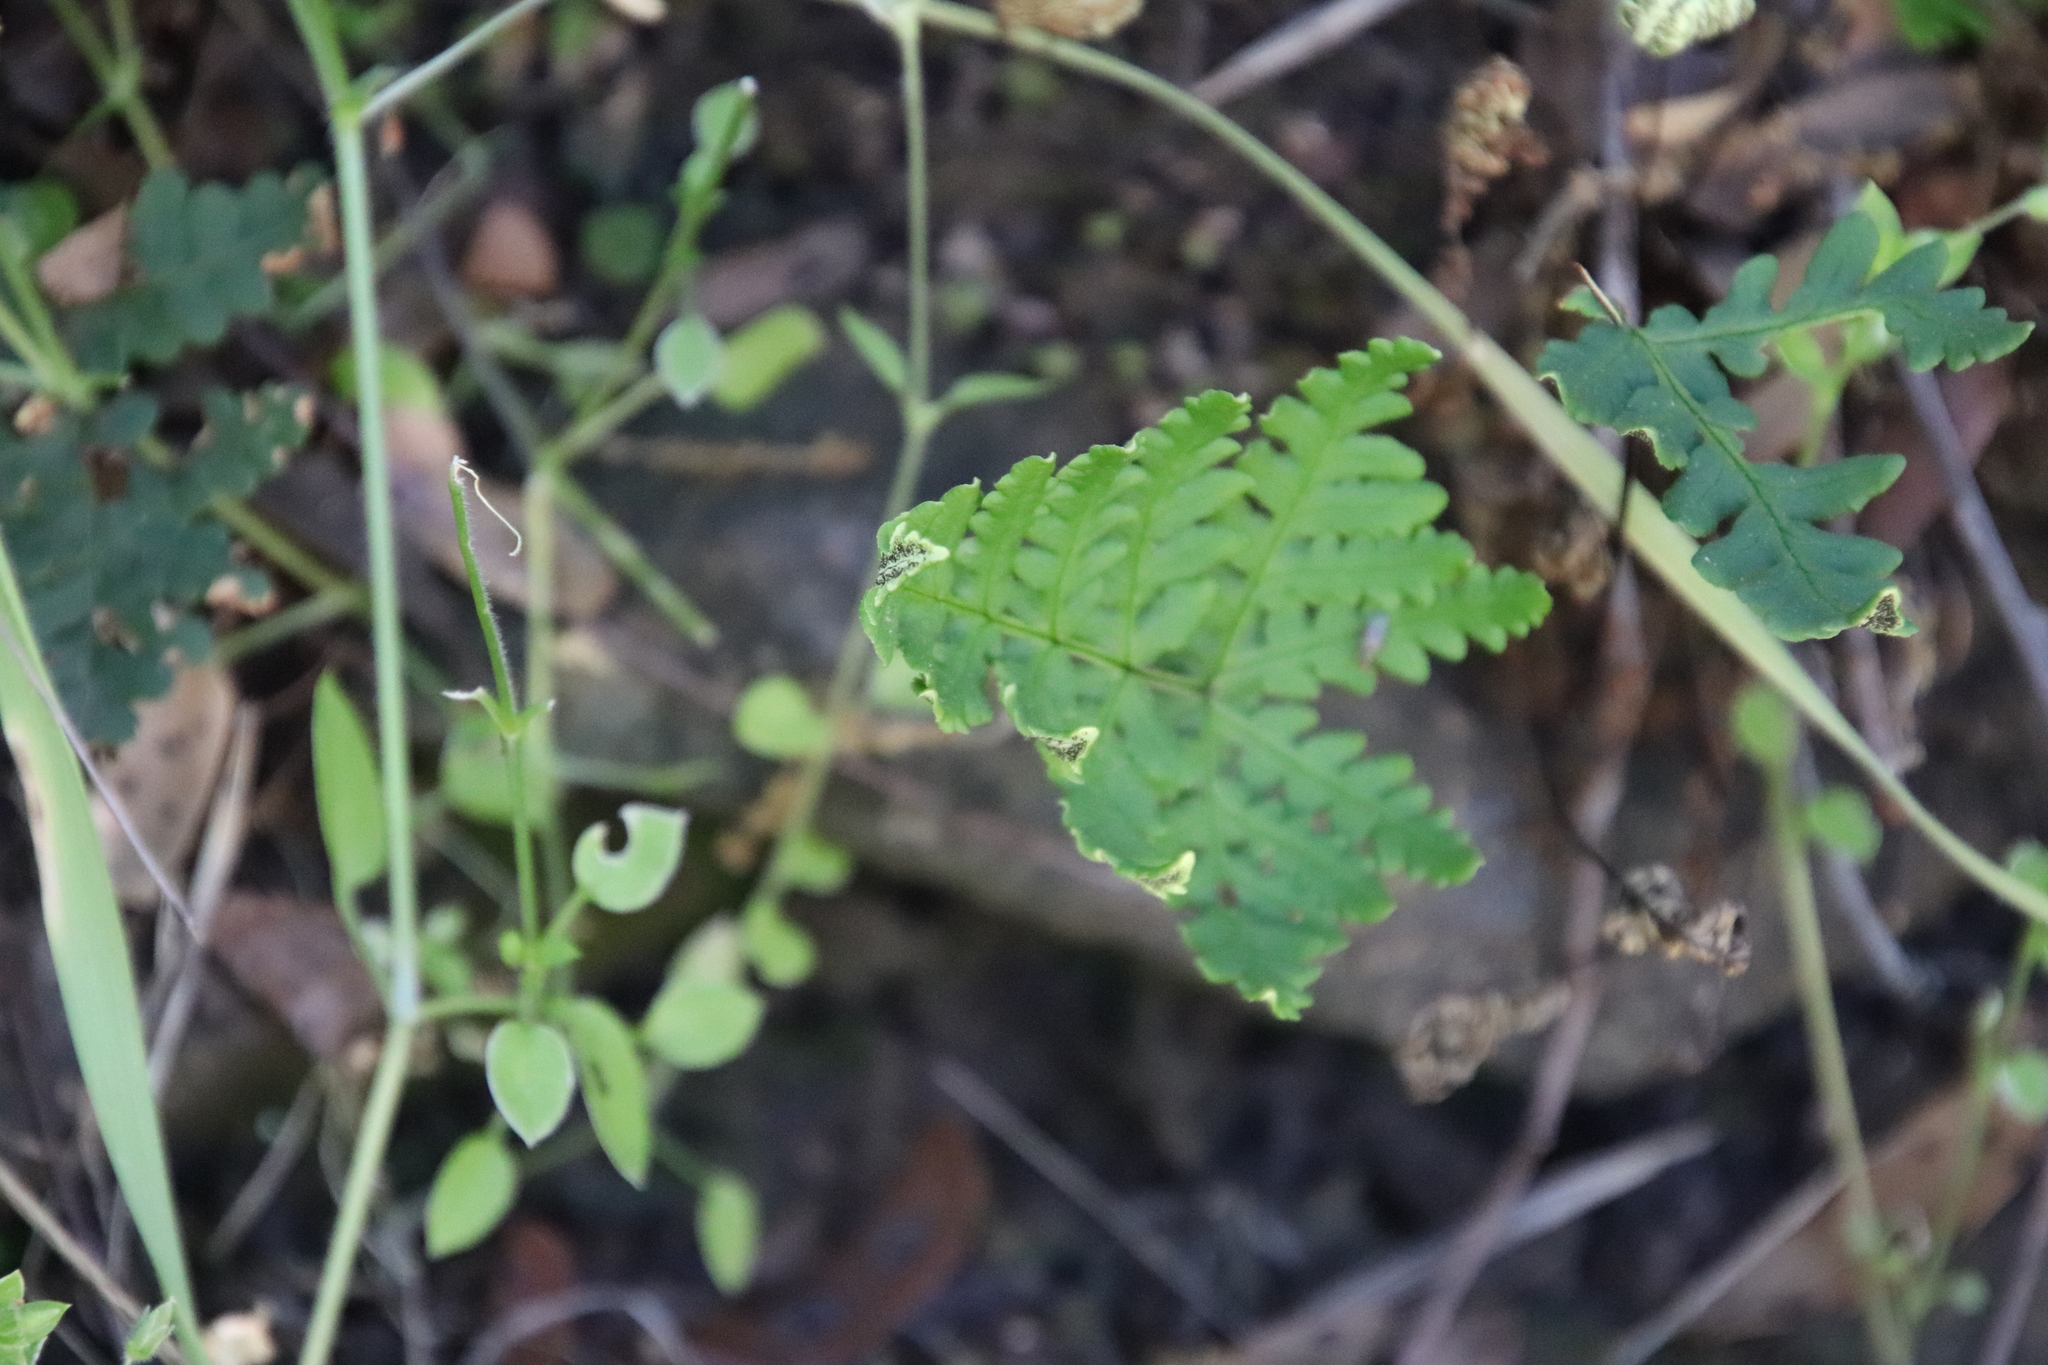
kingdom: Plantae
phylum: Tracheophyta
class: Polypodiopsida
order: Polypodiales
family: Pteridaceae
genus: Pentagramma
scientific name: Pentagramma triangularis
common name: Gold fern
